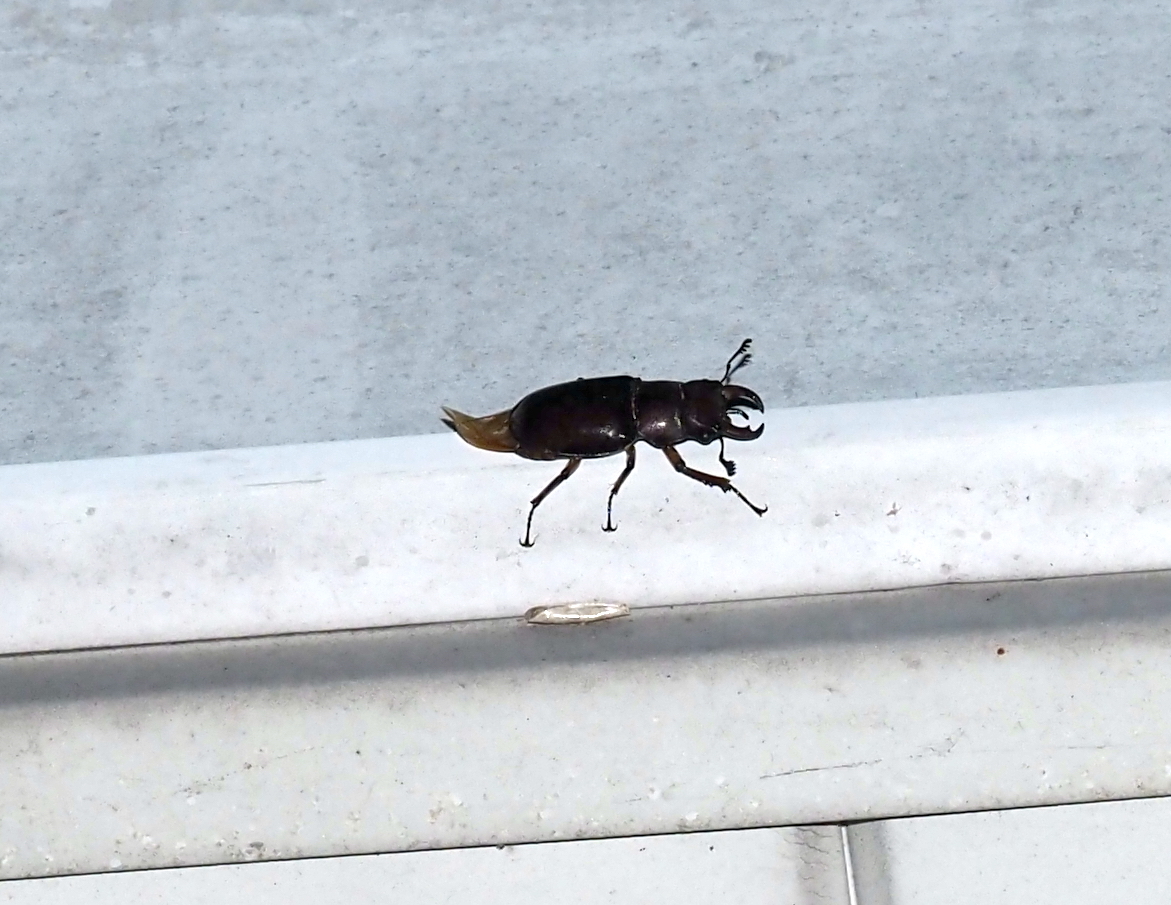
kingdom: Animalia
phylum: Arthropoda
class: Insecta
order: Coleoptera
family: Lucanidae
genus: Lucanus
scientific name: Lucanus capreolus
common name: Stag beetle
